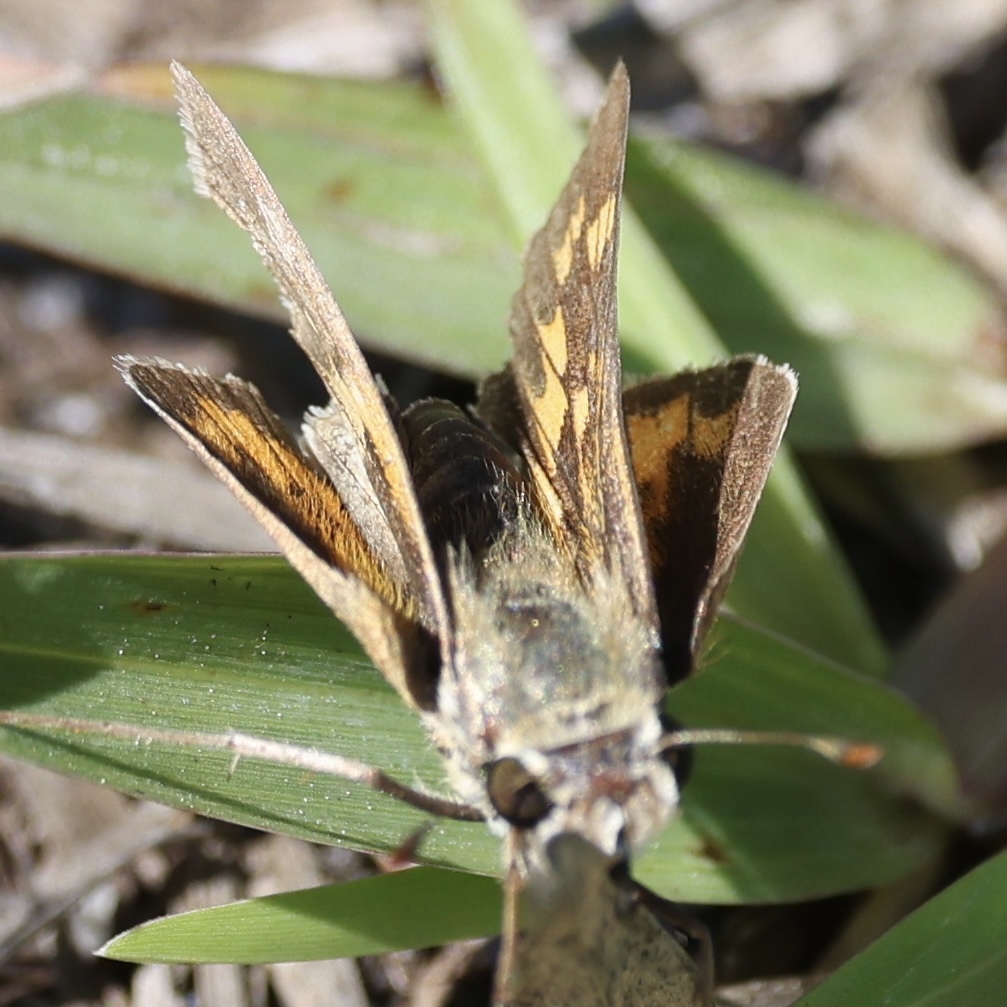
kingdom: Animalia
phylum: Arthropoda
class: Insecta
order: Lepidoptera
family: Hesperiidae
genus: Hylephila
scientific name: Hylephila phyleus
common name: Fiery skipper
